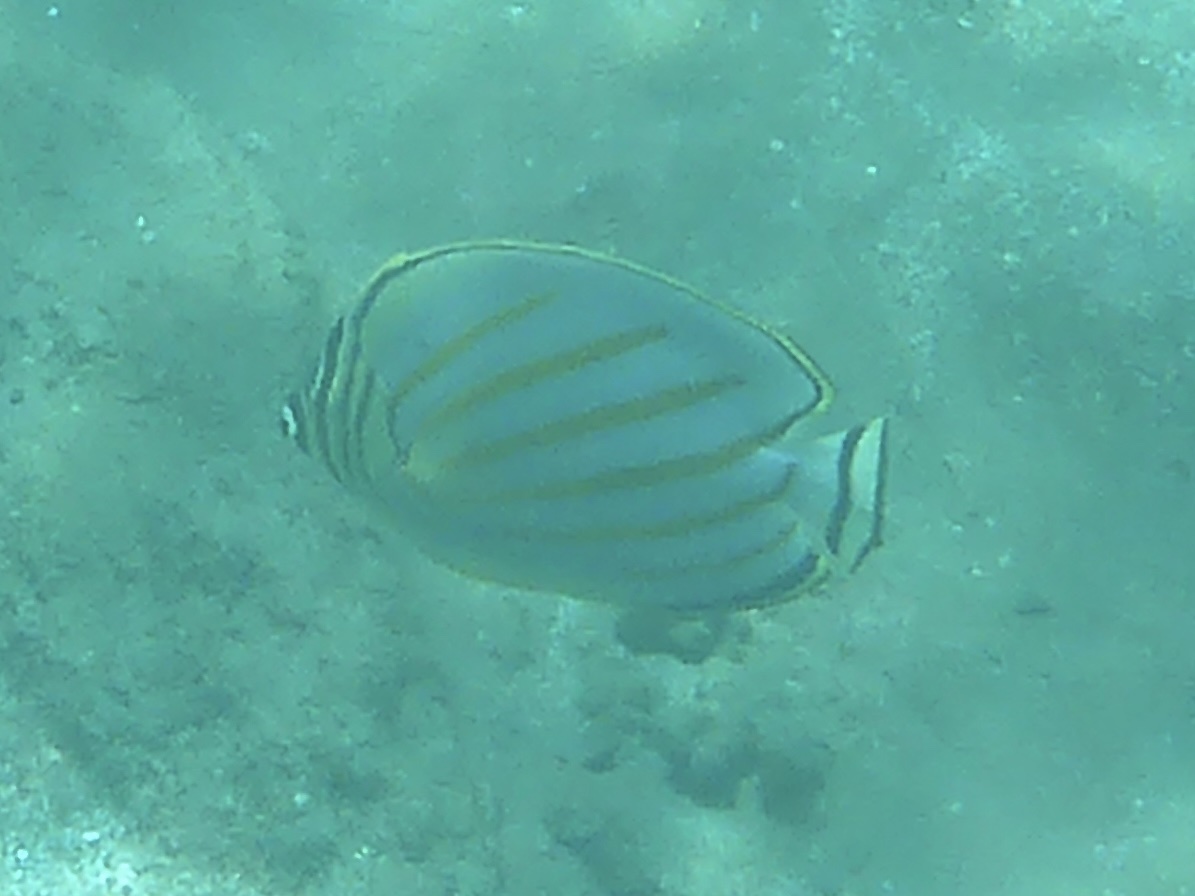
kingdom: Animalia
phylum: Chordata
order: Perciformes
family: Chaetodontidae
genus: Chaetodon
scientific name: Chaetodon ornatissimus
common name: Ornate butterflyfish
